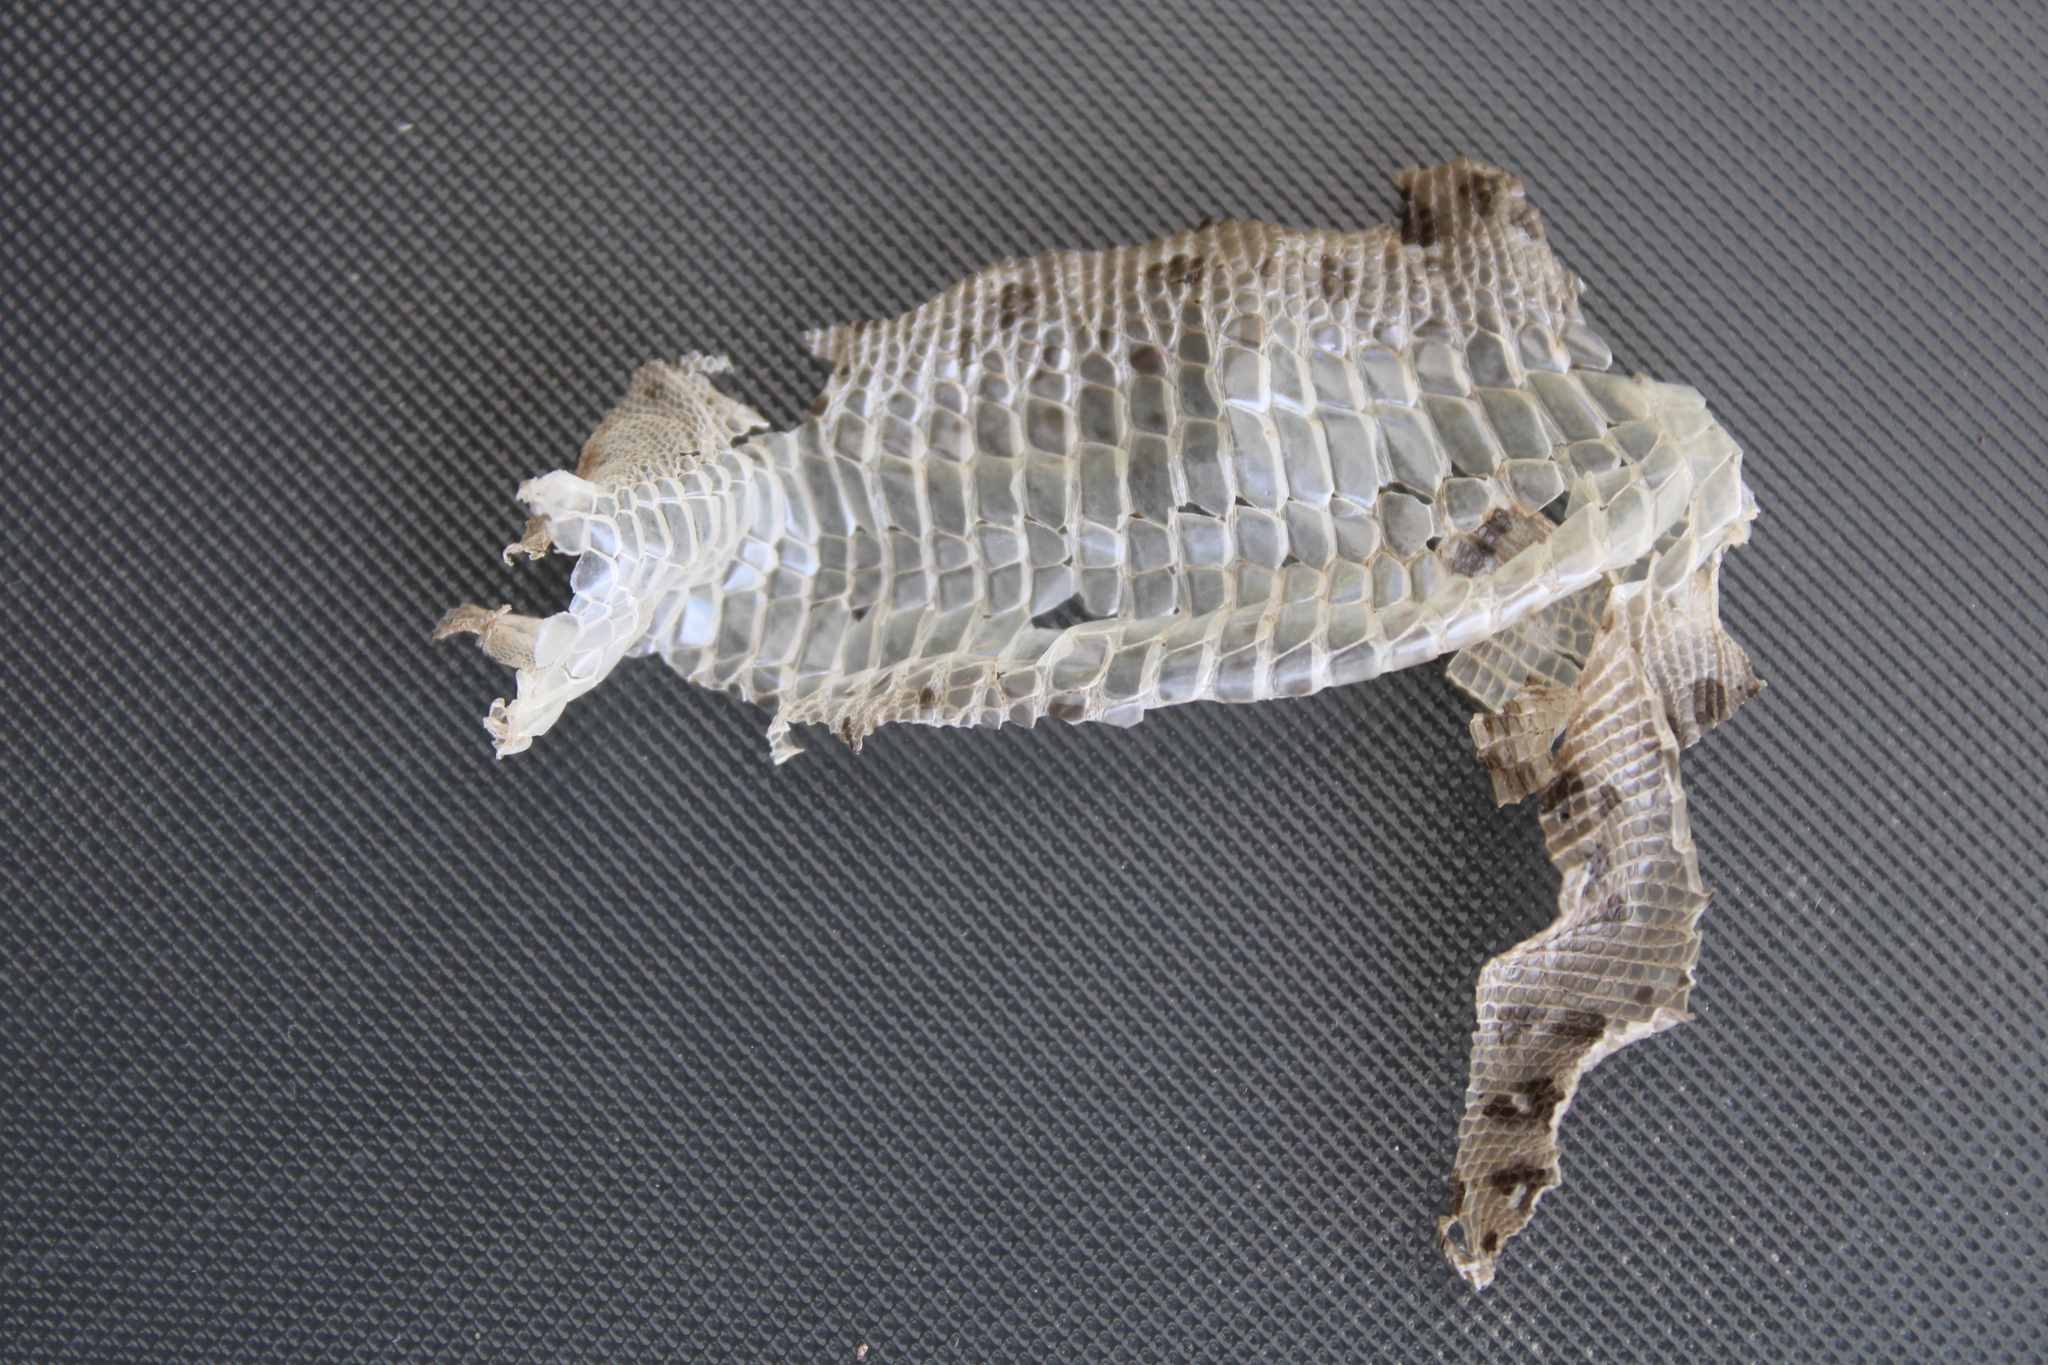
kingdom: Animalia
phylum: Chordata
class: Squamata
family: Lacertidae
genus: Lacerta
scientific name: Lacerta agilis
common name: Sand lizard
